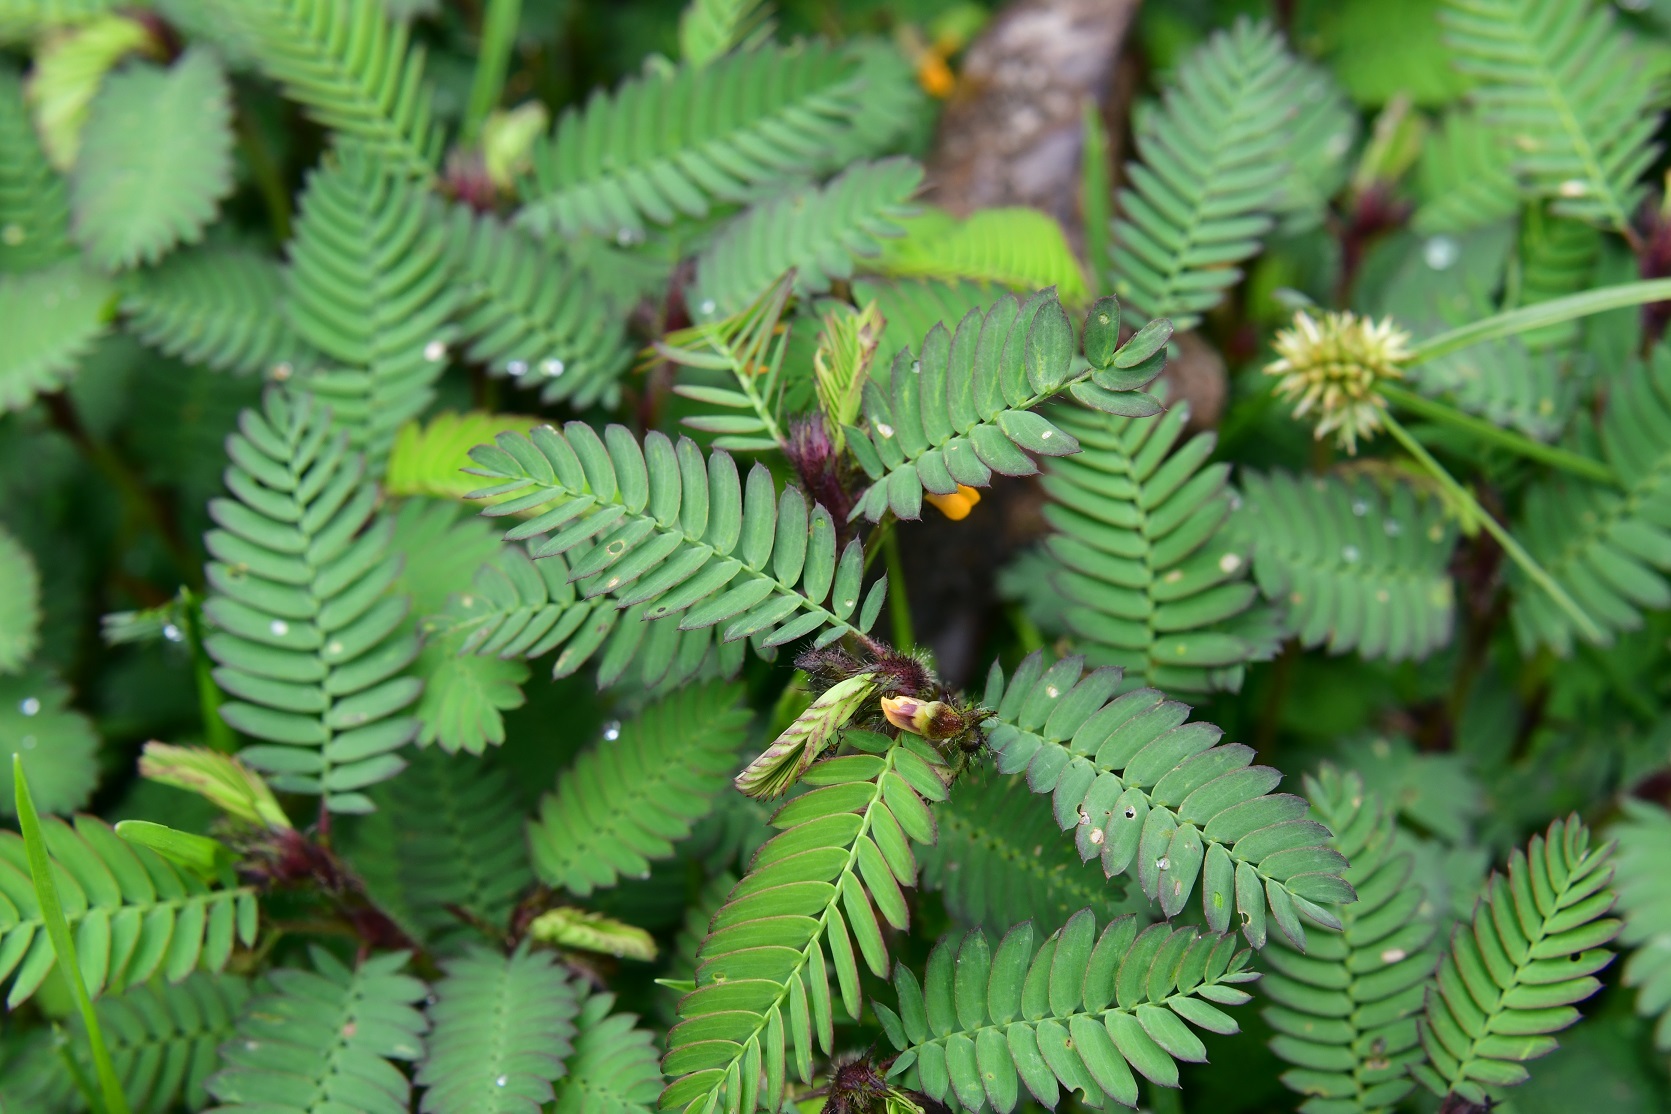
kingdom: Plantae
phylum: Tracheophyta
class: Magnoliopsida
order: Fabales
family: Fabaceae
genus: Aeschynomene
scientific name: Aeschynomene villosa
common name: Hairy-jointvetch
